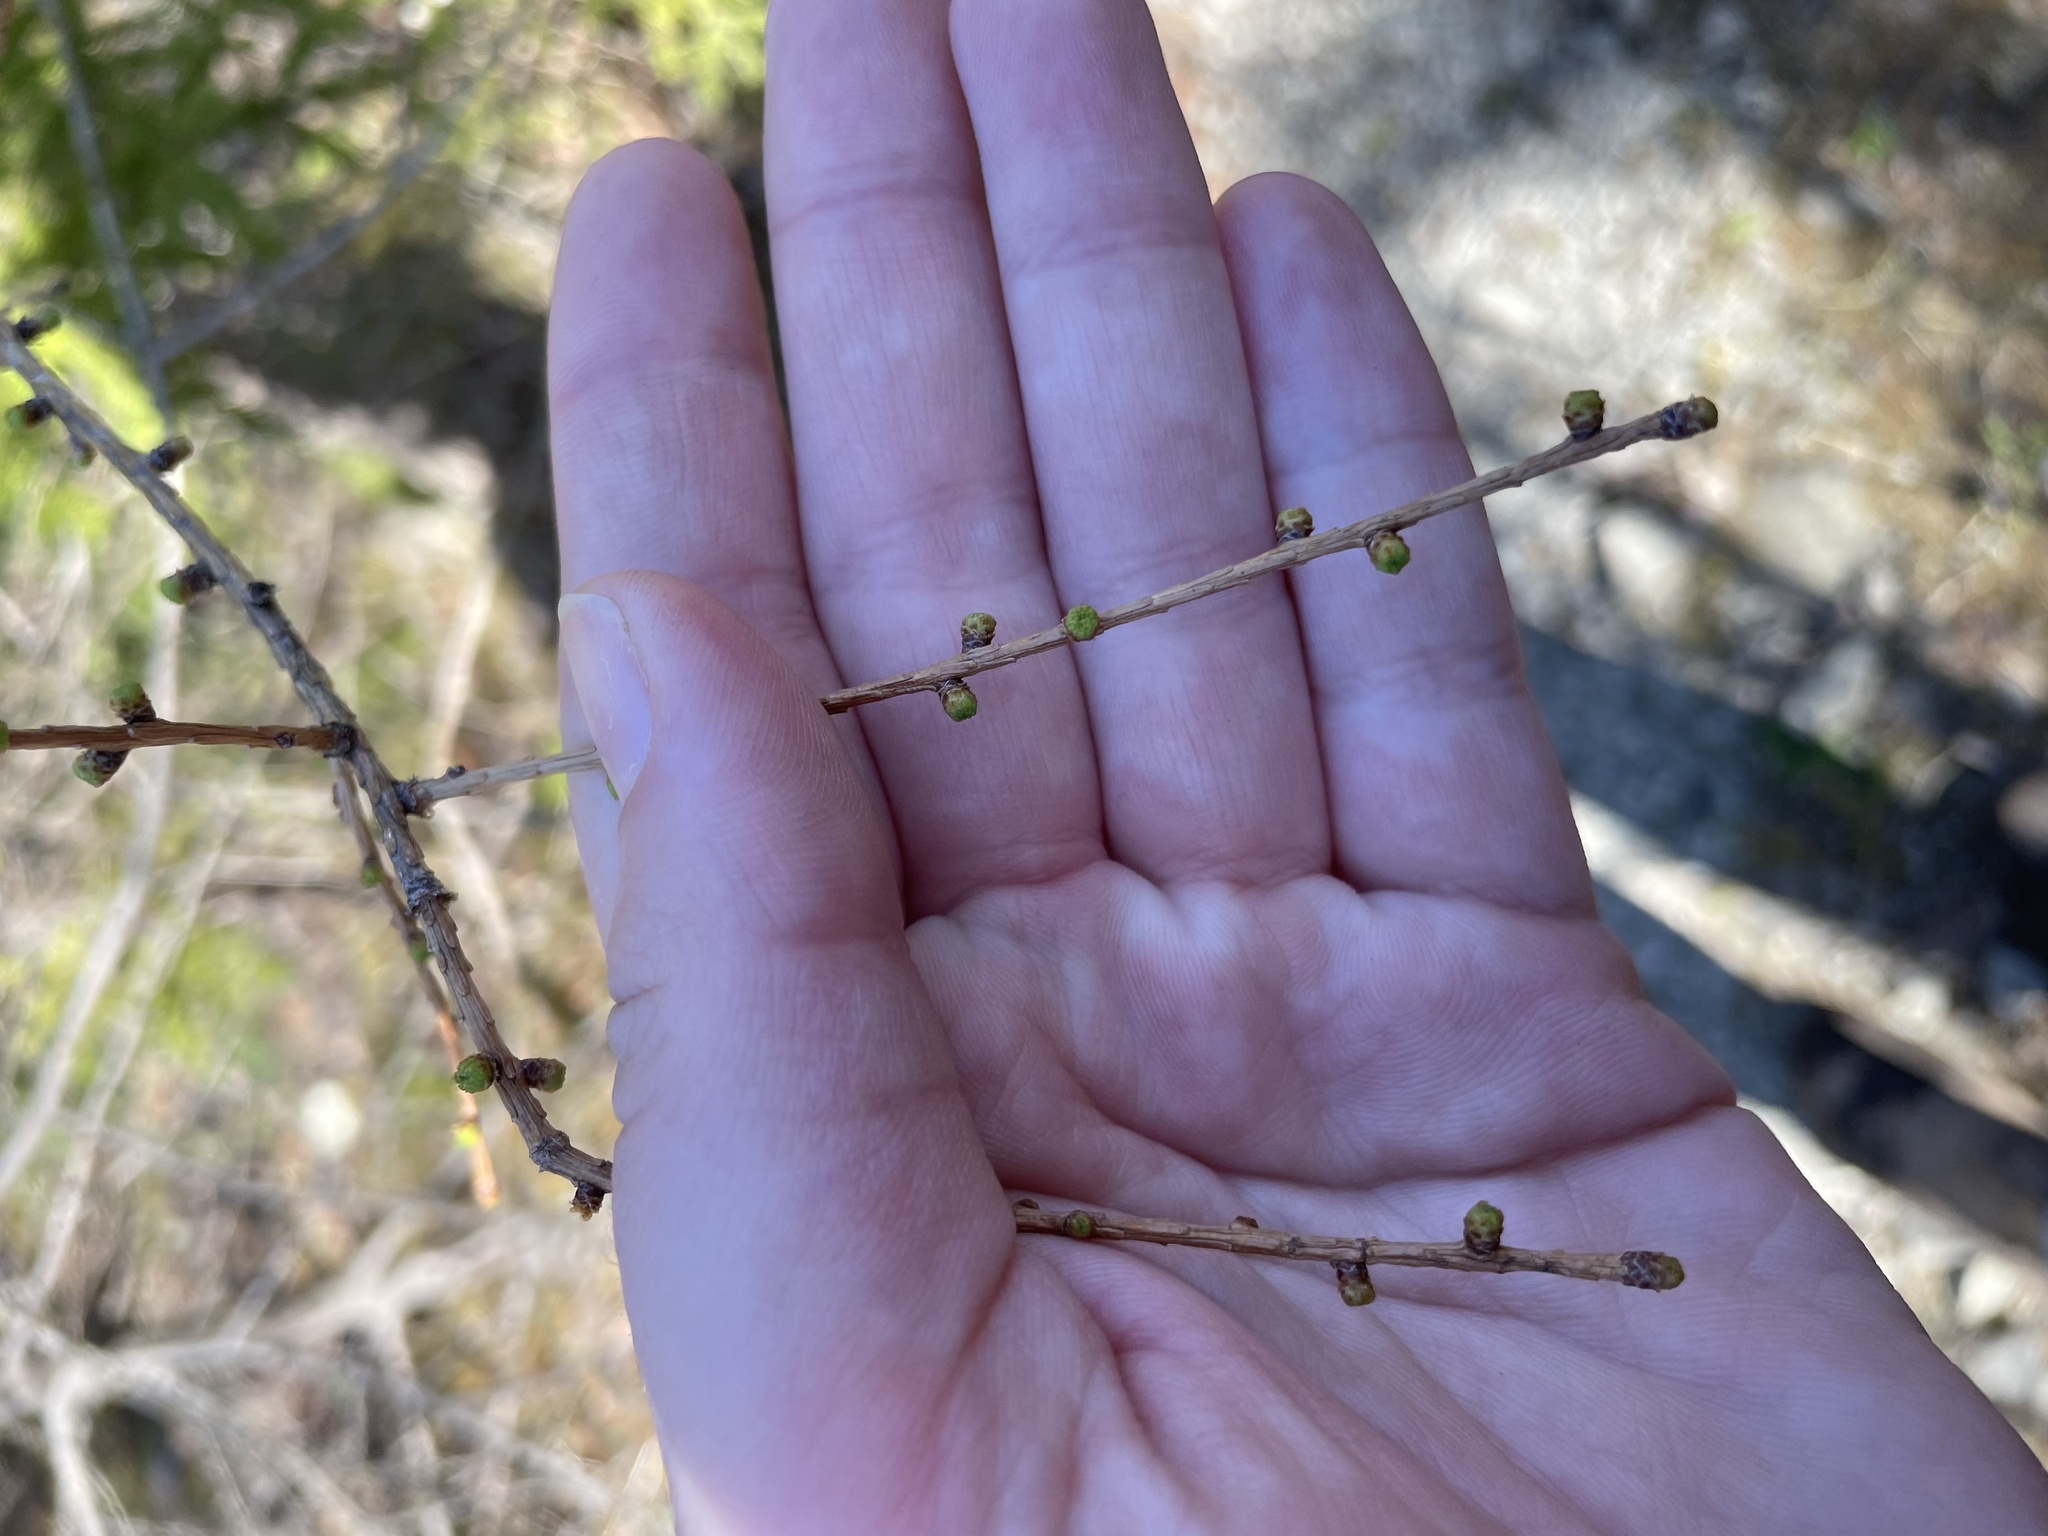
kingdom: Plantae
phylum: Tracheophyta
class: Pinopsida
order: Pinales
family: Pinaceae
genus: Larix
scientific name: Larix laricina
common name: American larch
